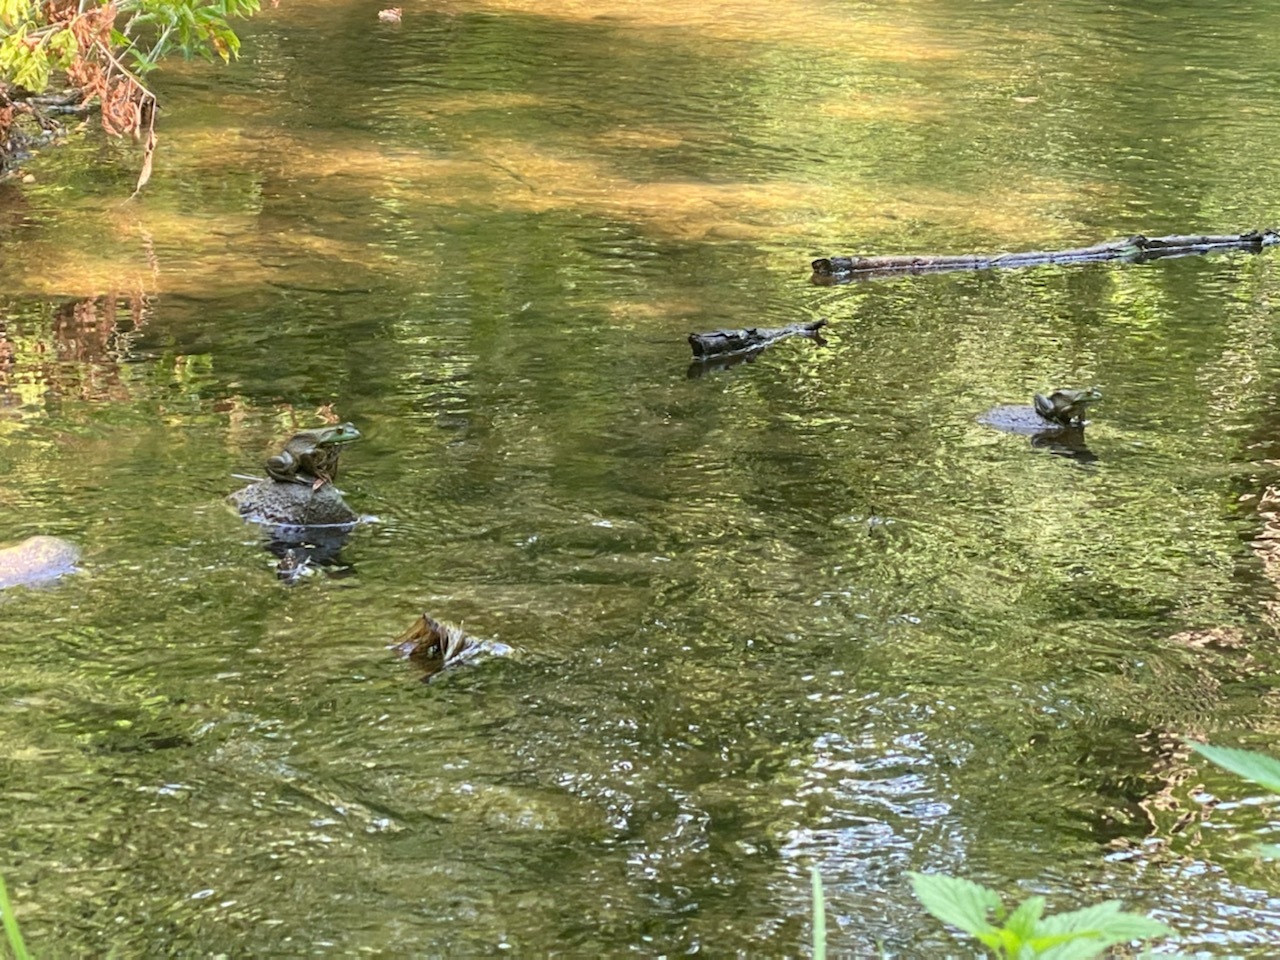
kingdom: Animalia
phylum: Chordata
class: Amphibia
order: Anura
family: Ranidae
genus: Lithobates
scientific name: Lithobates catesbeianus
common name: American bullfrog
